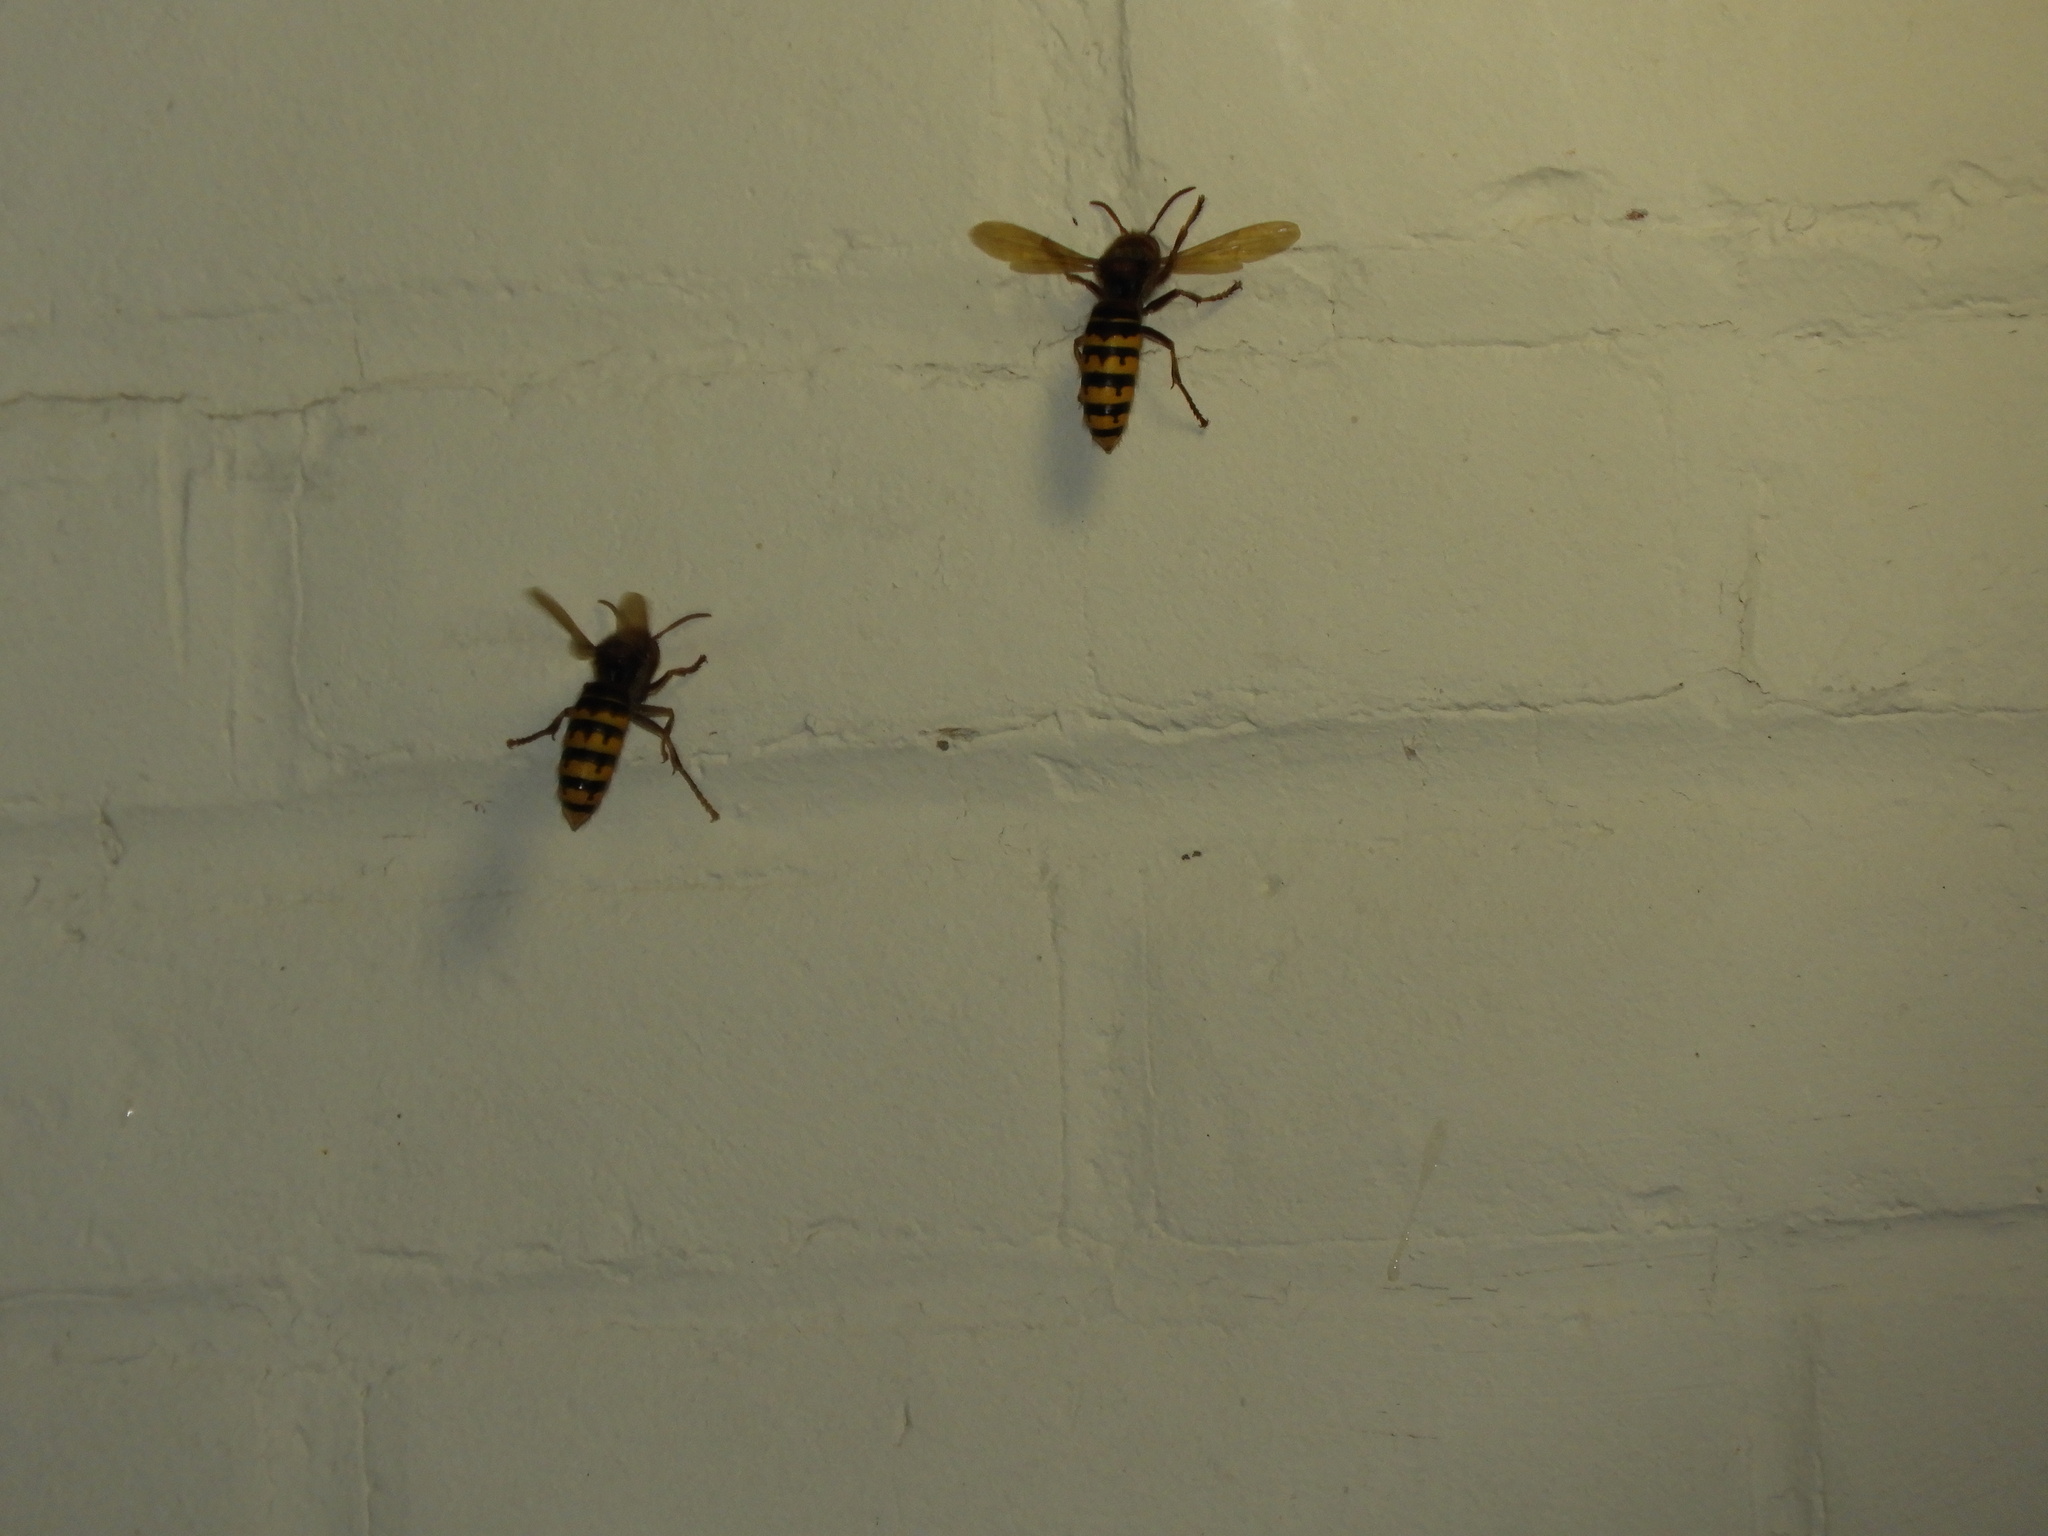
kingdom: Animalia
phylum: Arthropoda
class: Insecta
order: Hymenoptera
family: Vespidae
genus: Vespa
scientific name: Vespa crabro
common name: Hornet
